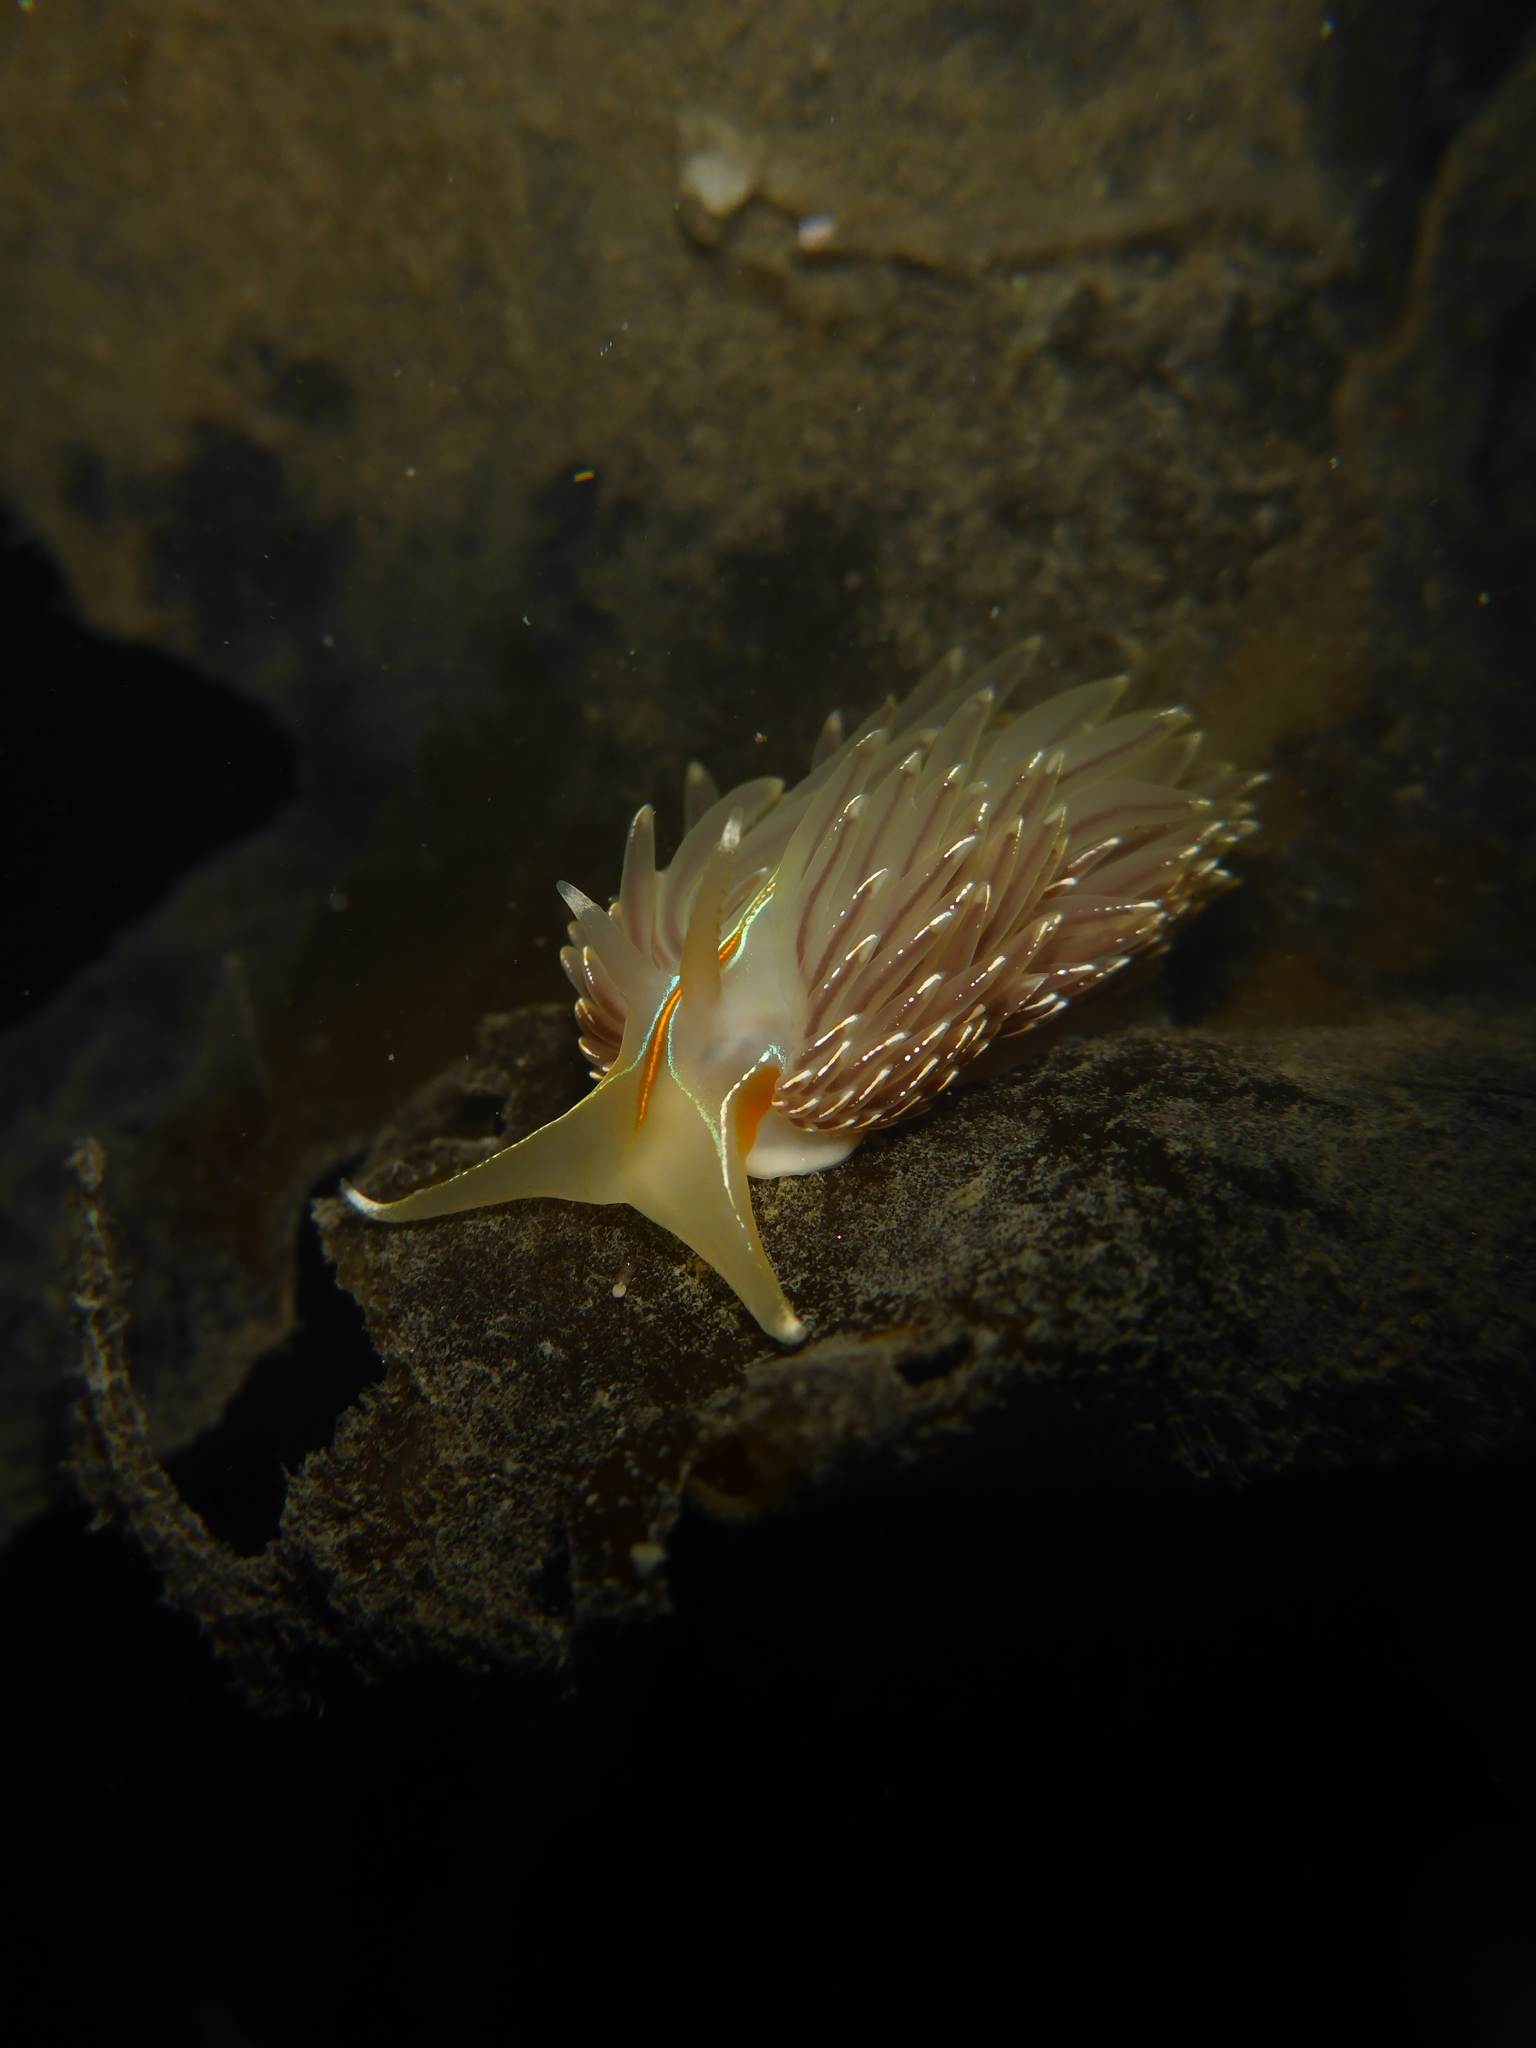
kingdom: Animalia
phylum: Mollusca
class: Gastropoda
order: Nudibranchia
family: Myrrhinidae
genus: Hermissenda
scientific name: Hermissenda crassicornis
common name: Hermissenda
